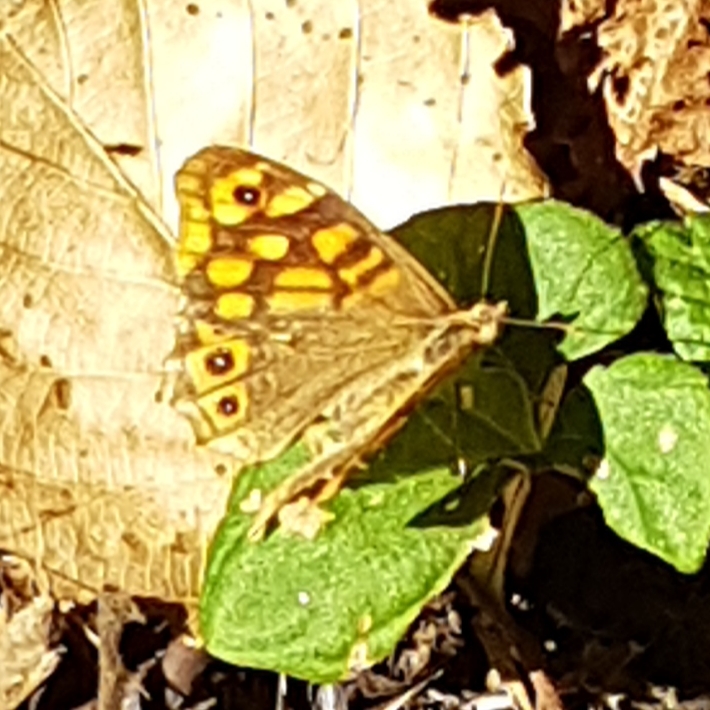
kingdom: Animalia
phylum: Arthropoda
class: Insecta
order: Lepidoptera
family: Nymphalidae
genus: Pararge
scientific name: Pararge aegeria
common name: Speckled wood
